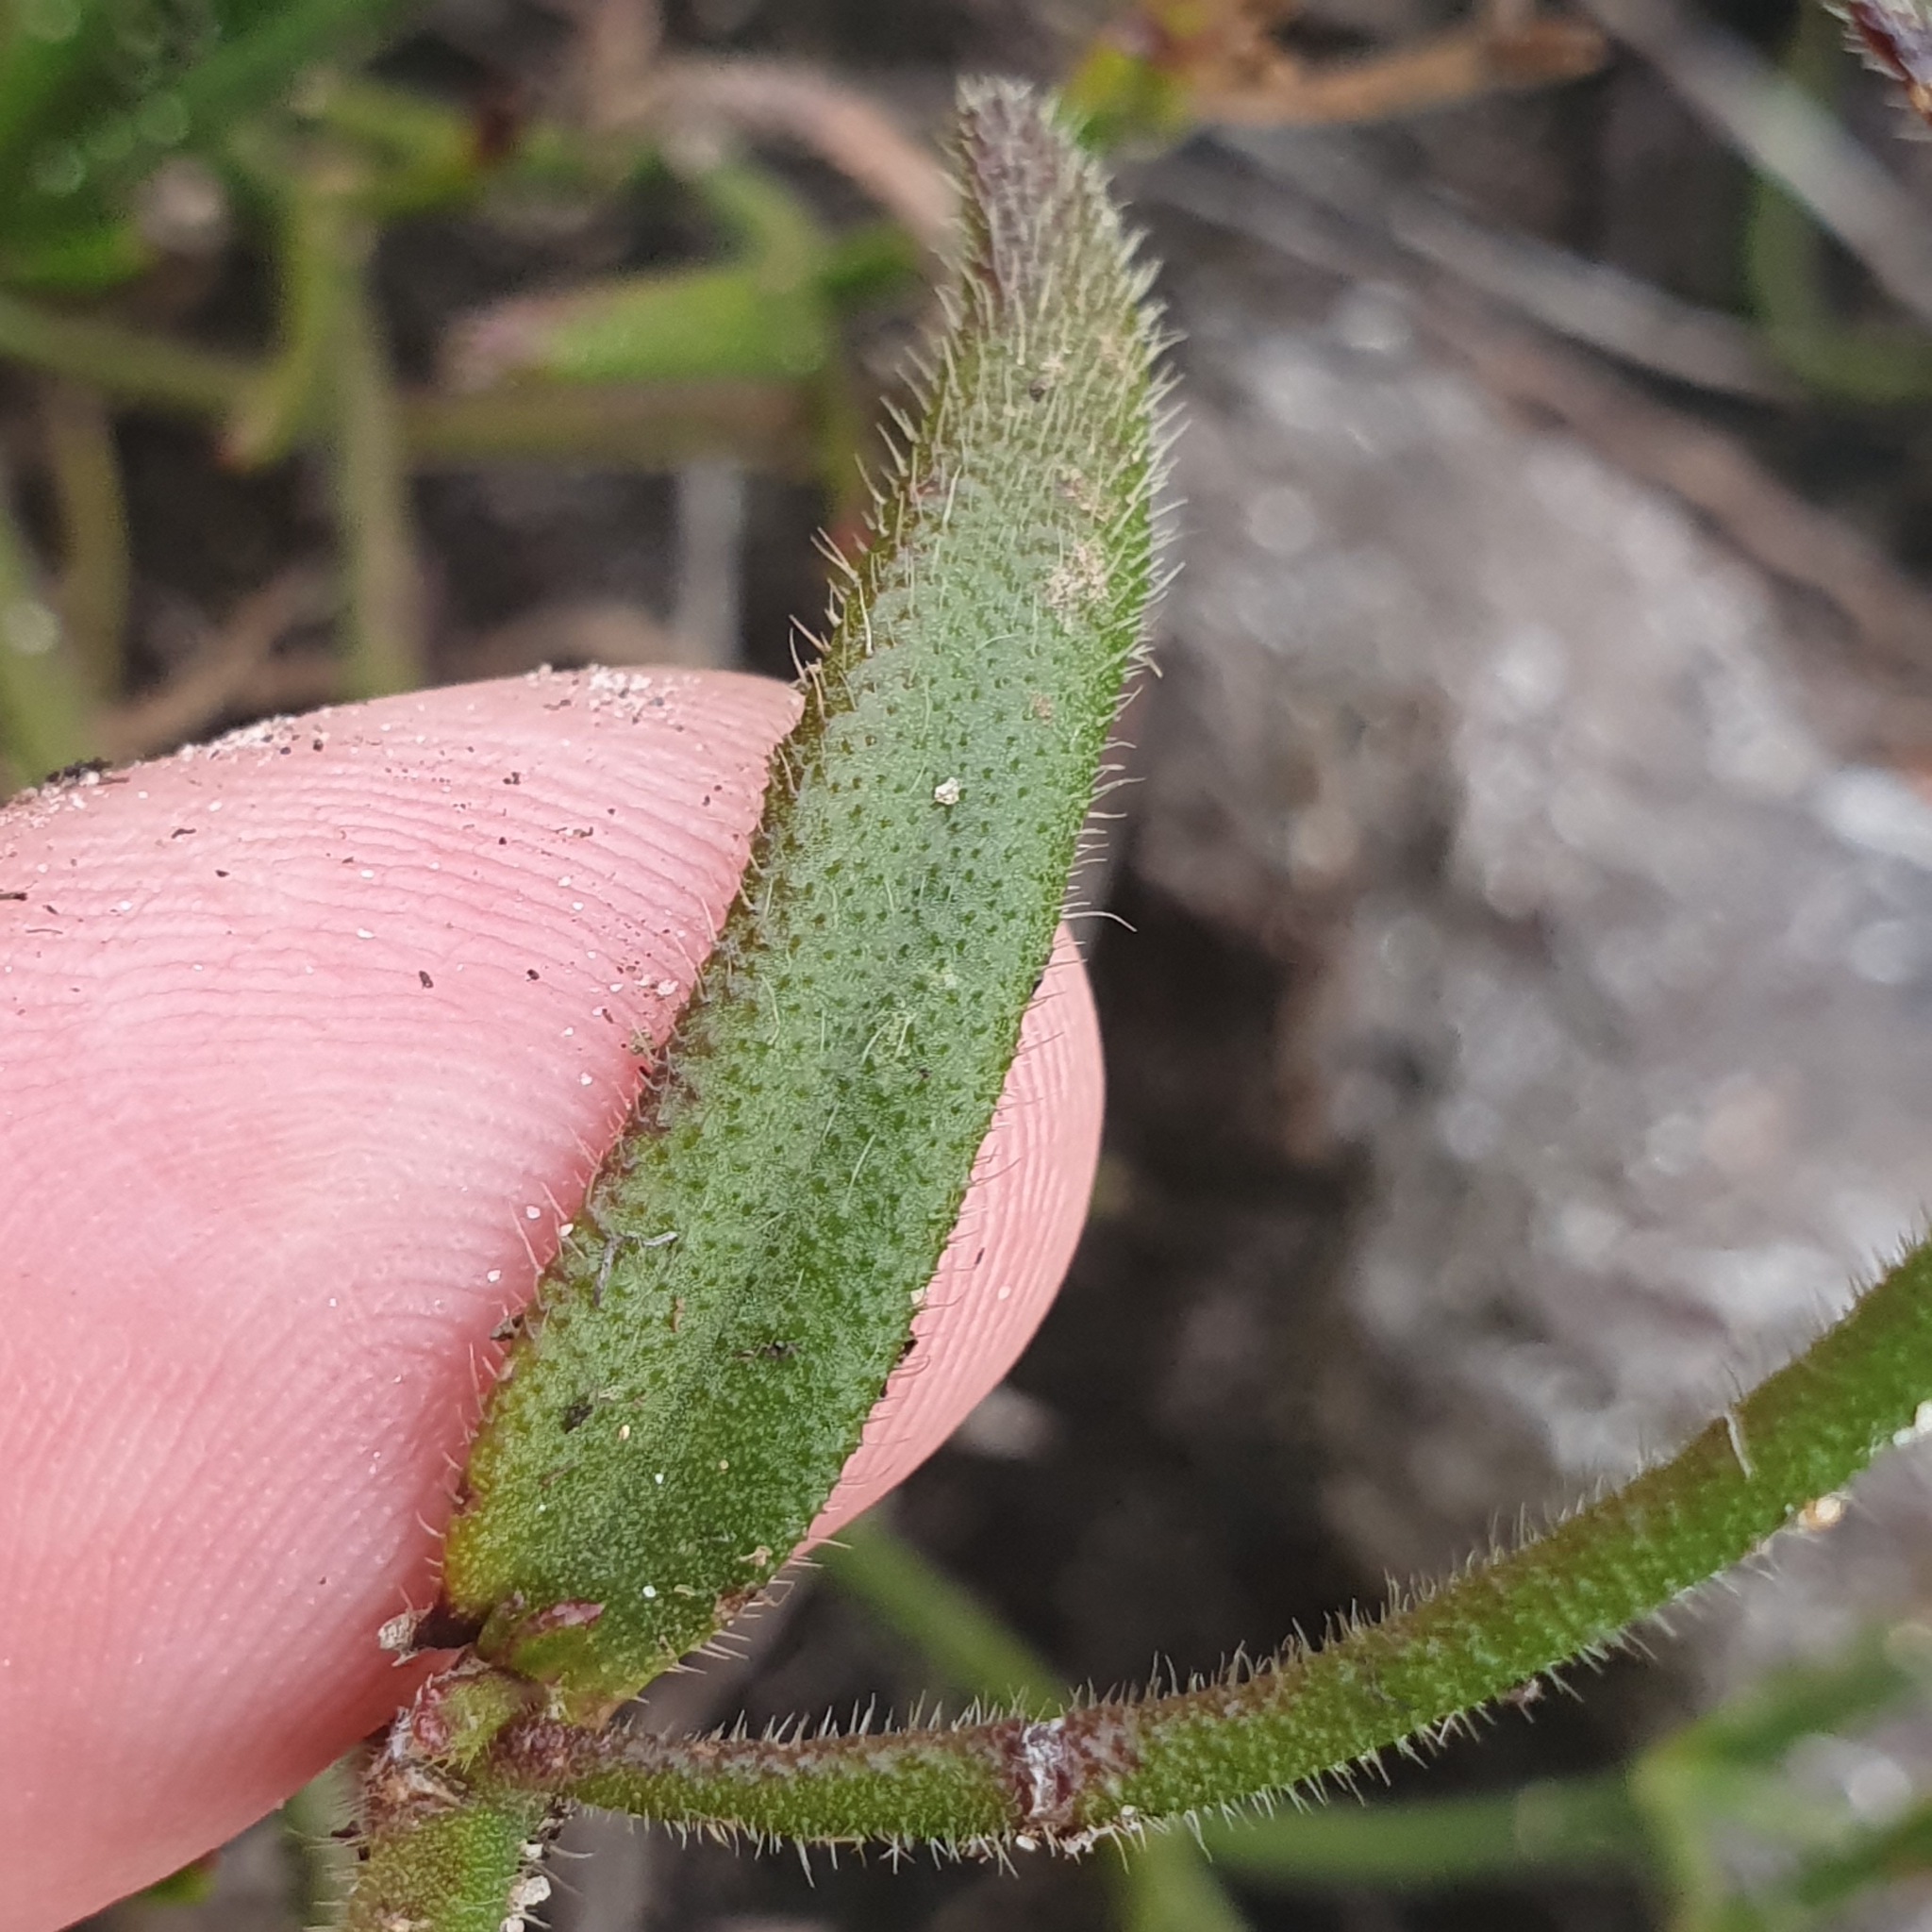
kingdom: Plantae
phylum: Tracheophyta
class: Magnoliopsida
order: Asterales
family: Goodeniaceae
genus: Scaevola
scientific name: Scaevola ramosissima
